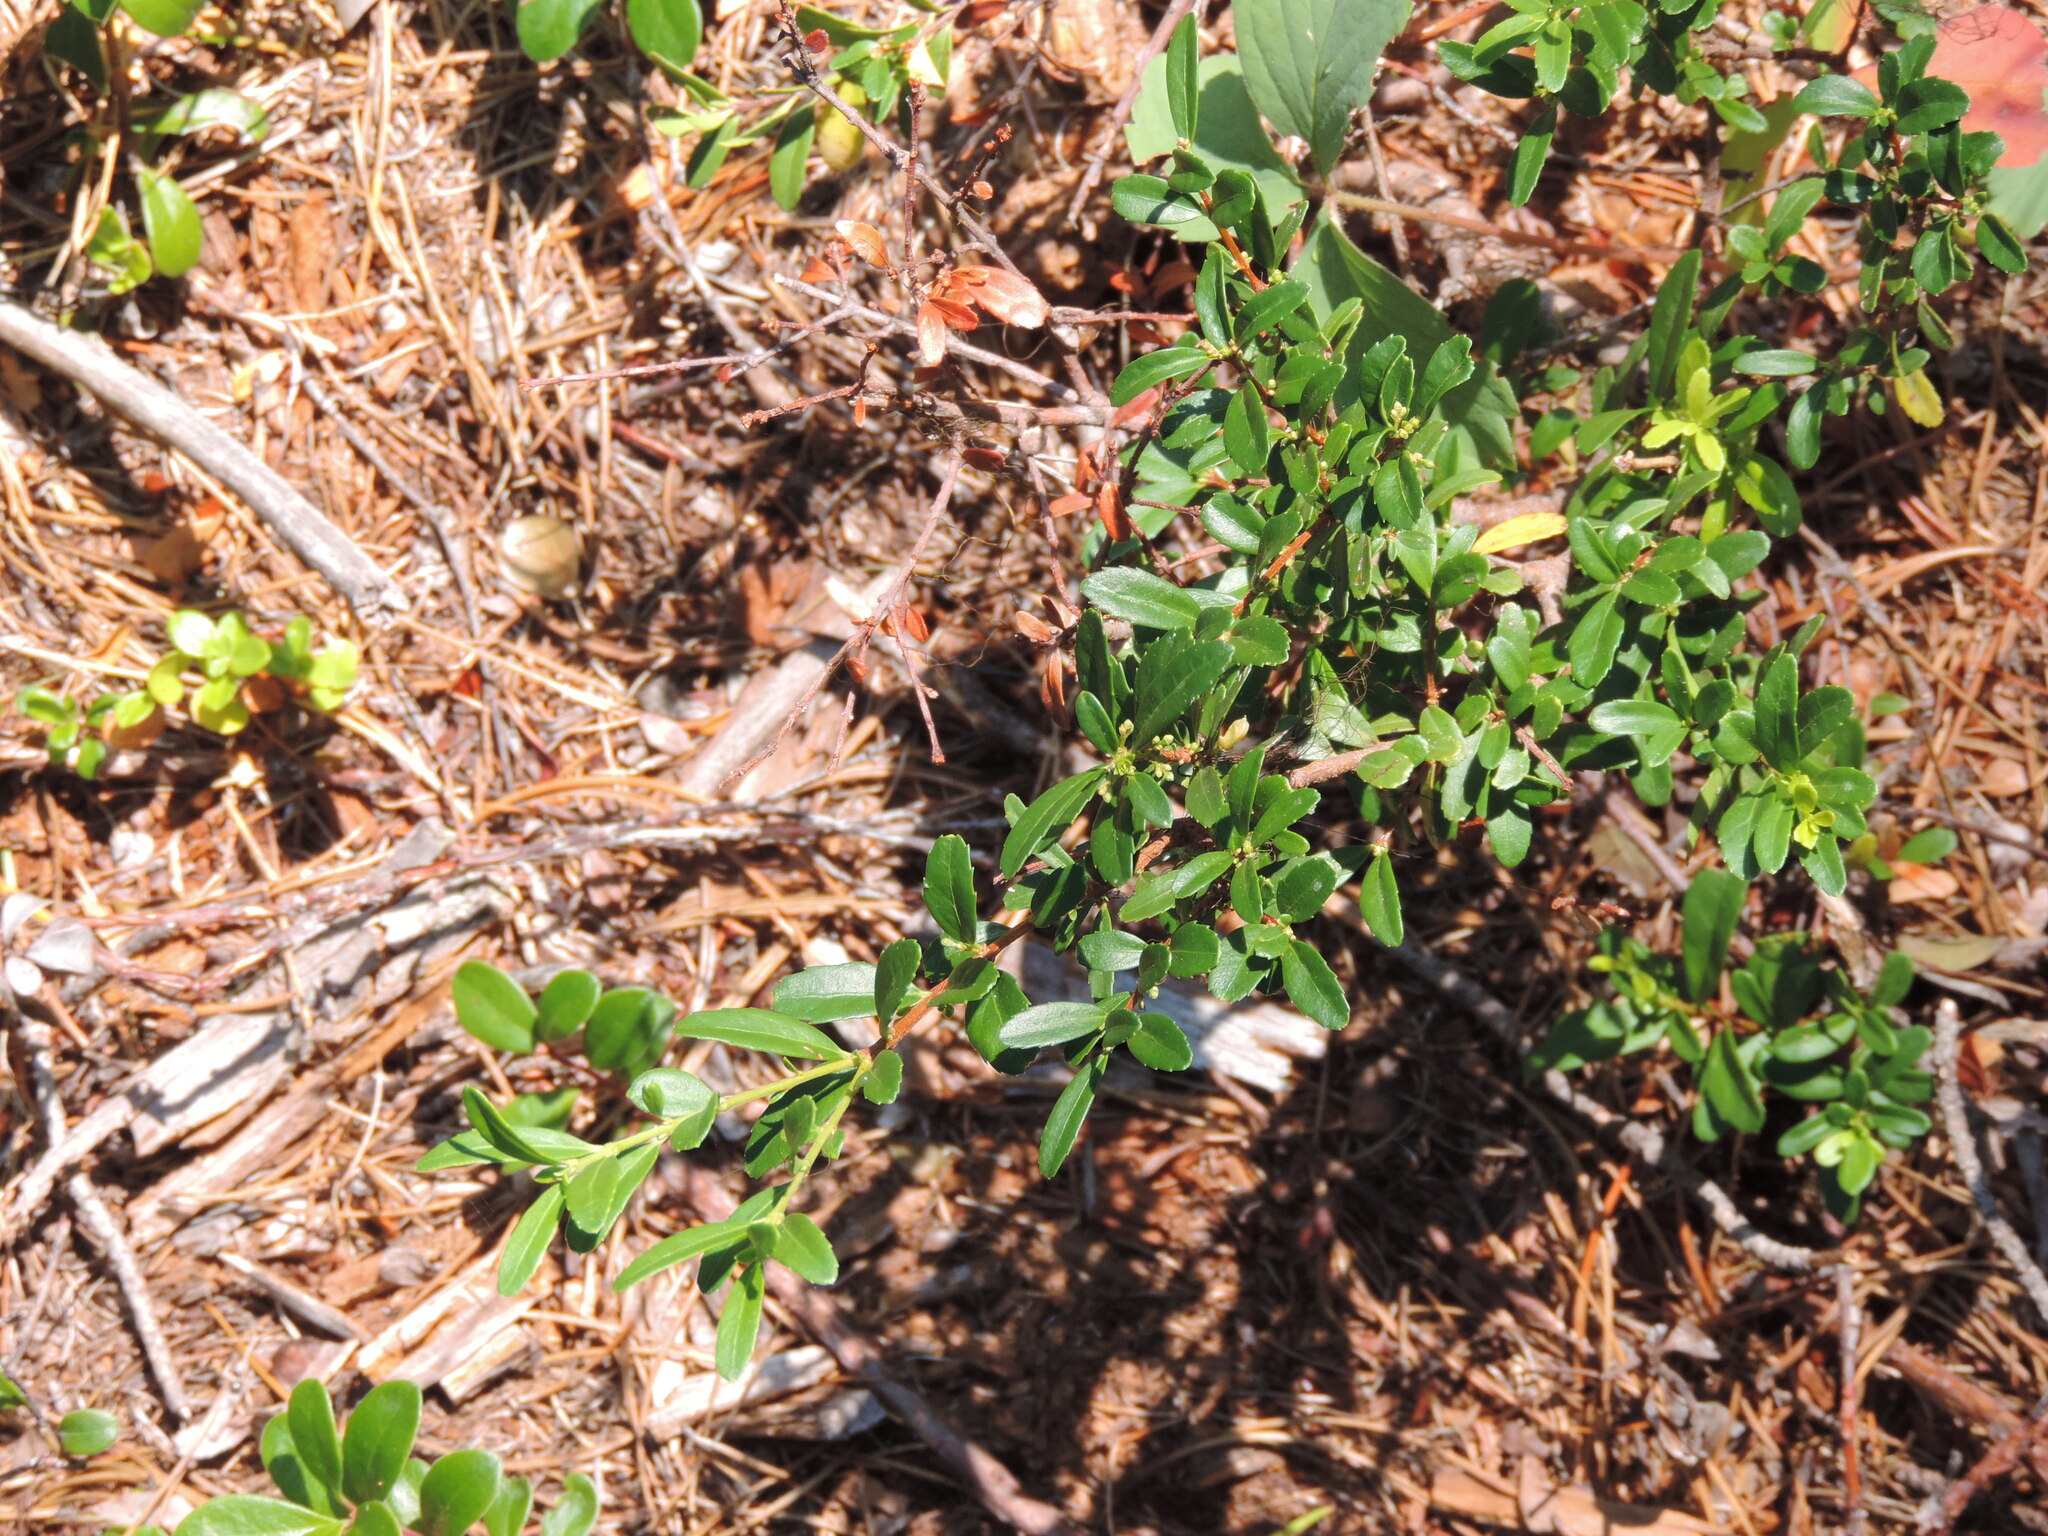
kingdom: Plantae
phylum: Tracheophyta
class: Magnoliopsida
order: Celastrales
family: Celastraceae
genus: Paxistima
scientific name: Paxistima myrsinites
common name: Mountain-lover
